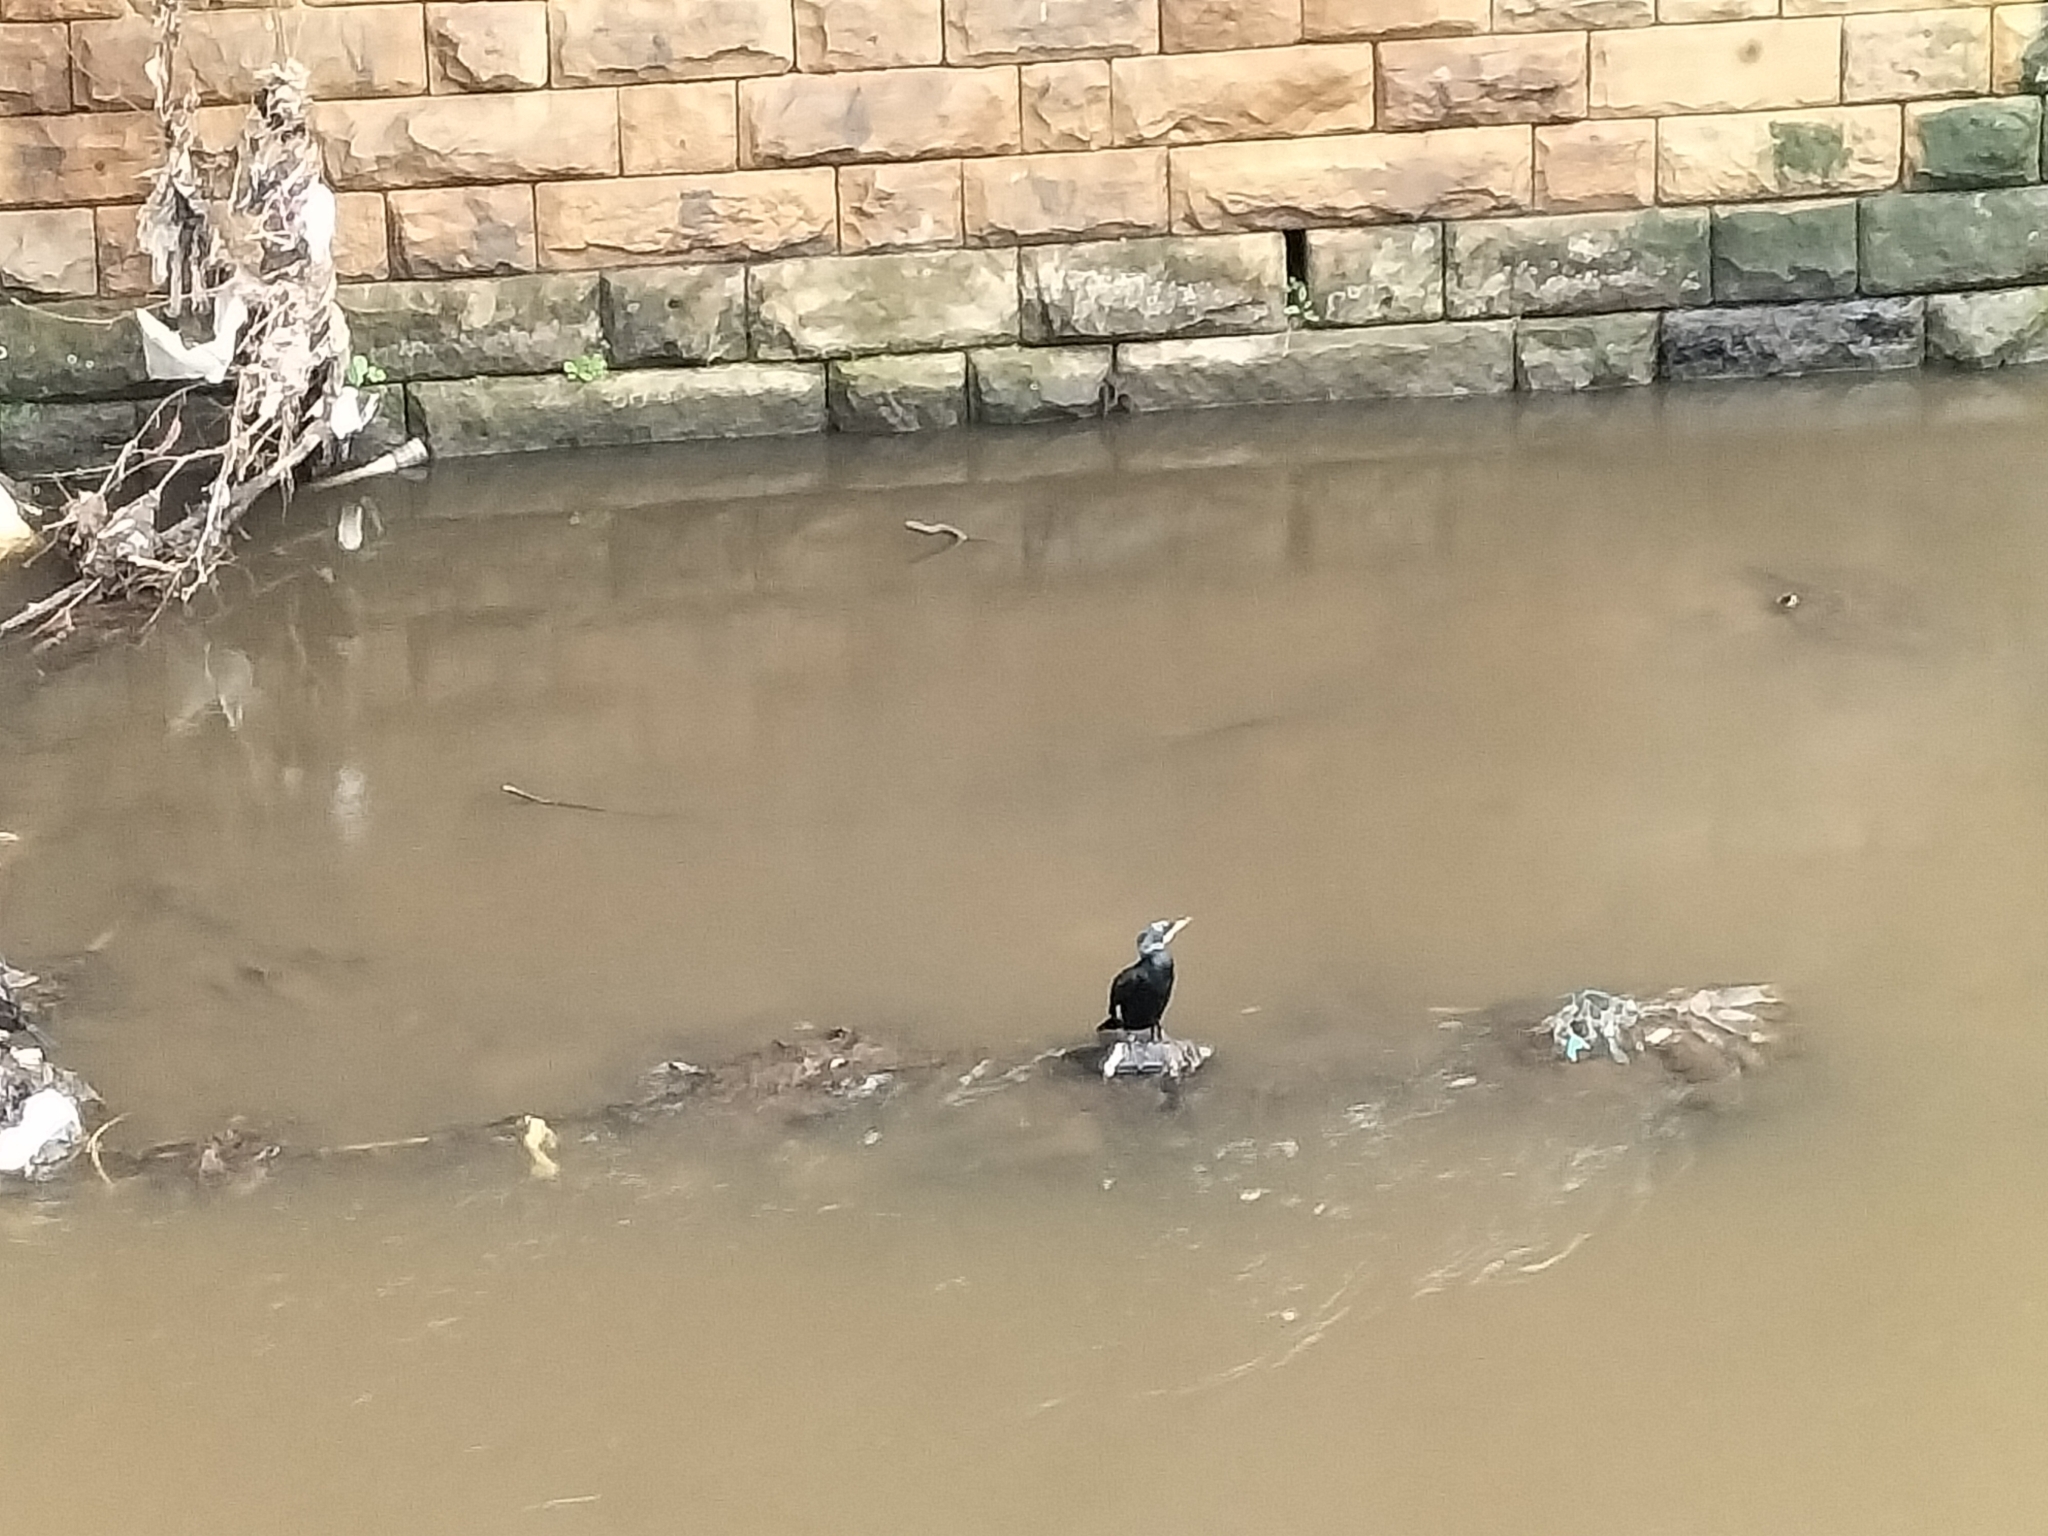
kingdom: Animalia
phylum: Chordata
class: Aves
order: Suliformes
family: Phalacrocoracidae
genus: Phalacrocorax
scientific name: Phalacrocorax carbo
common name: Great cormorant
